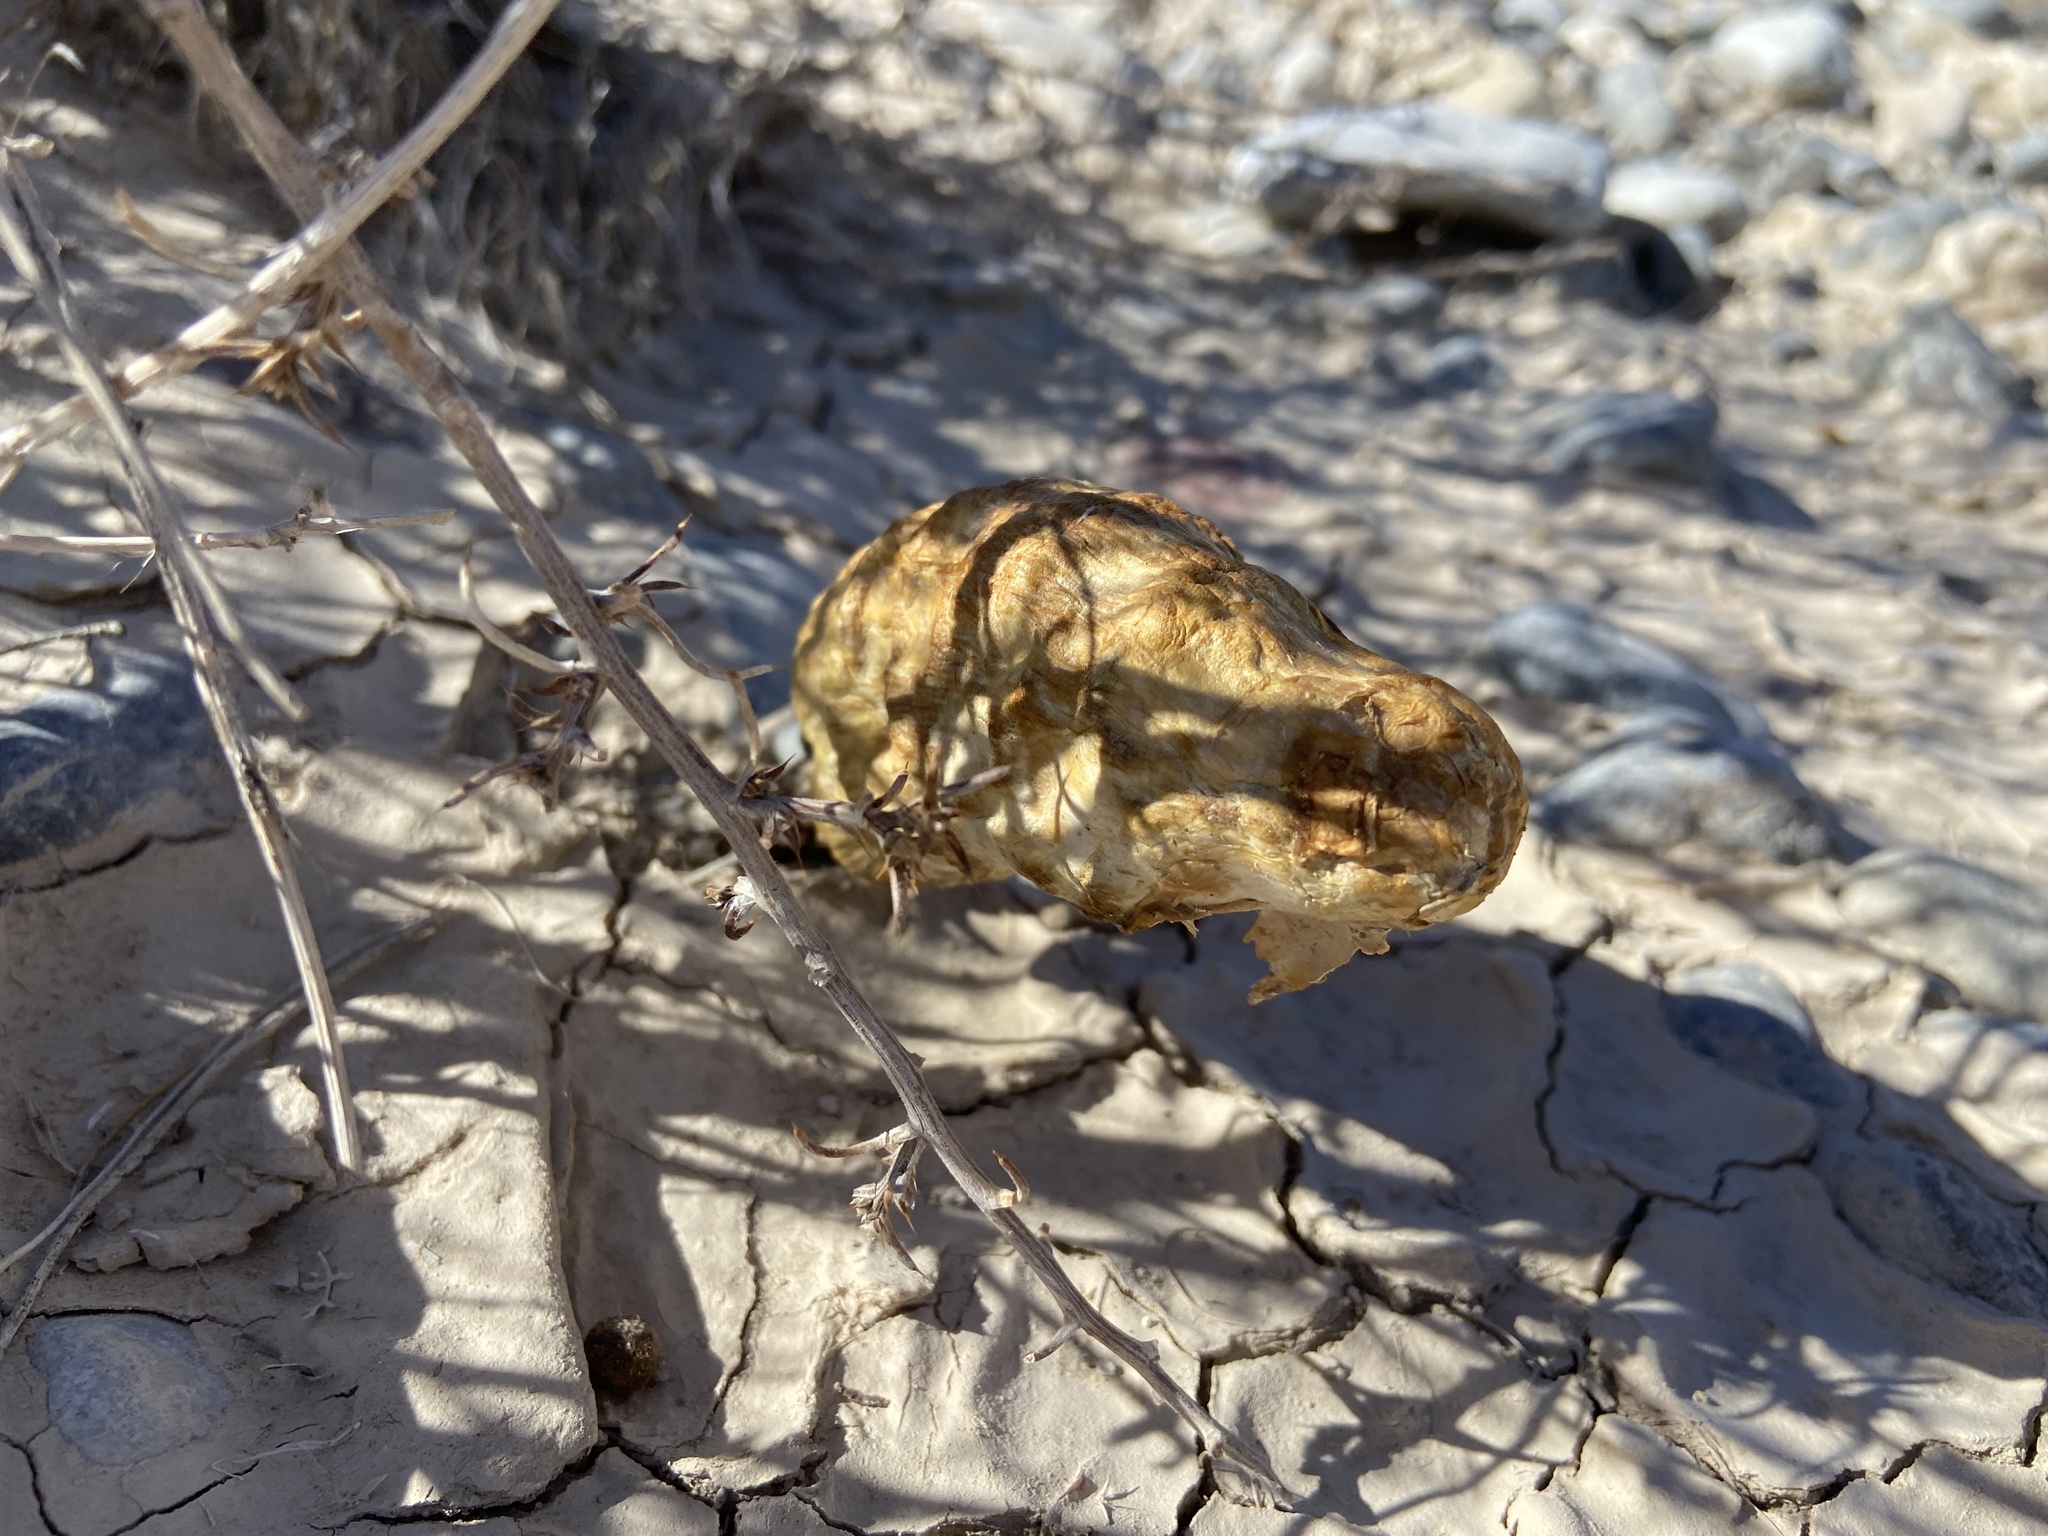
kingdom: Fungi
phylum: Basidiomycota
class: Agaricomycetes
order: Agaricales
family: Agaricaceae
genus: Podaxis
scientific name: Podaxis pistillaris
